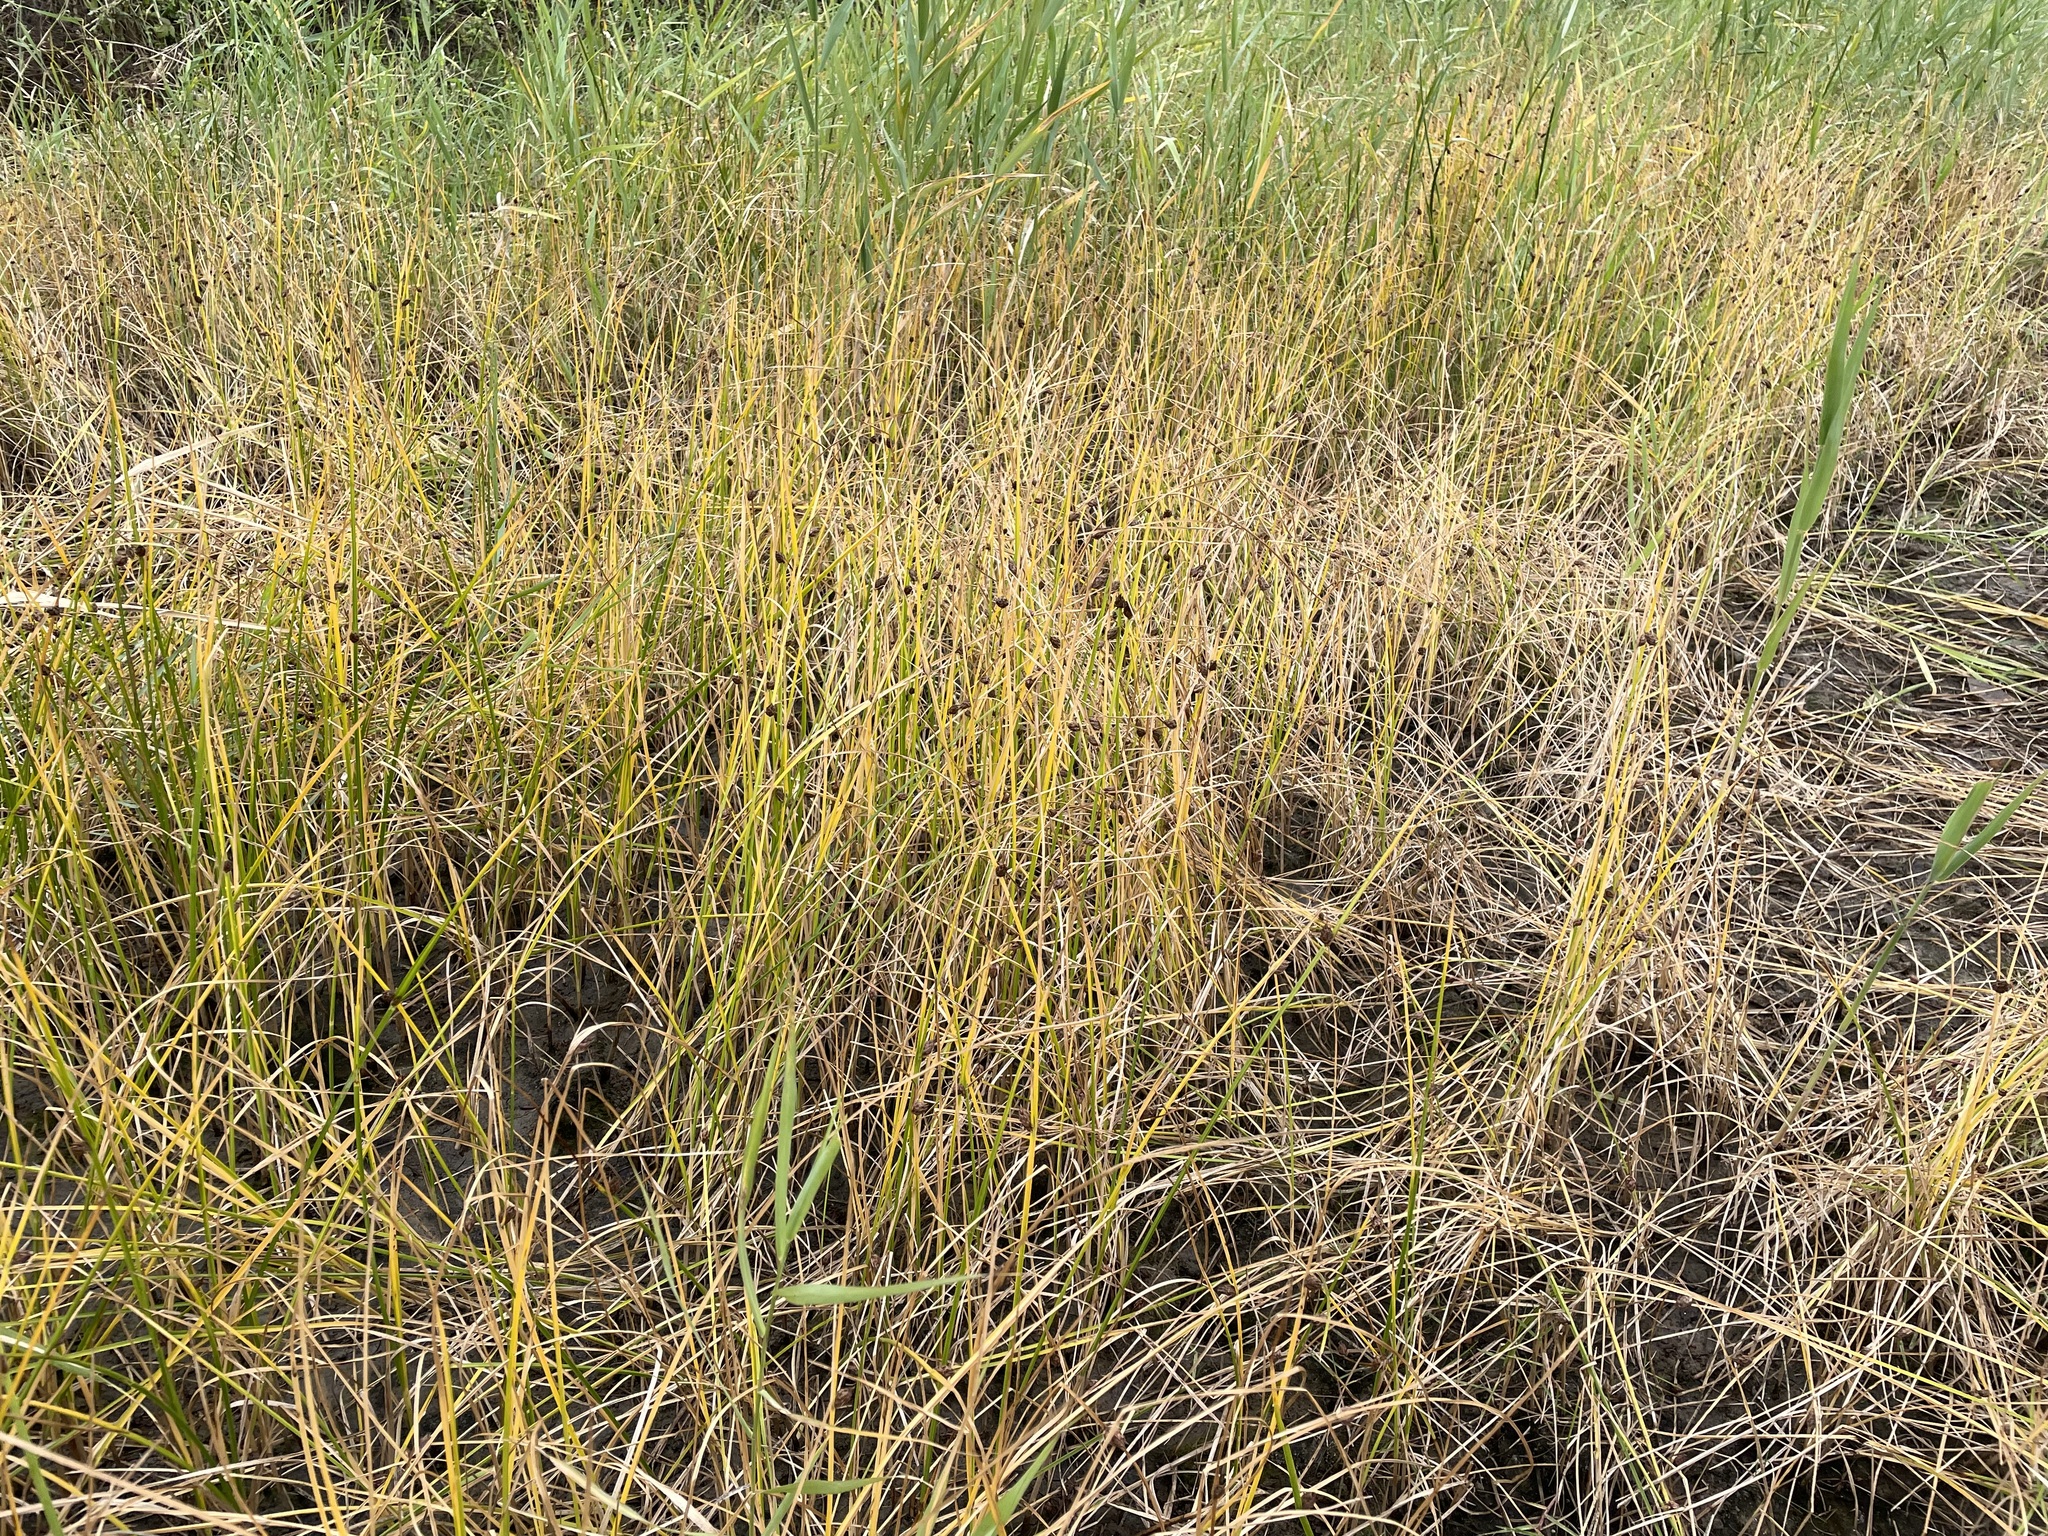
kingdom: Plantae
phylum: Tracheophyta
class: Liliopsida
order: Poales
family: Cyperaceae
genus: Bolboschoenus
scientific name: Bolboschoenus planiculmis
